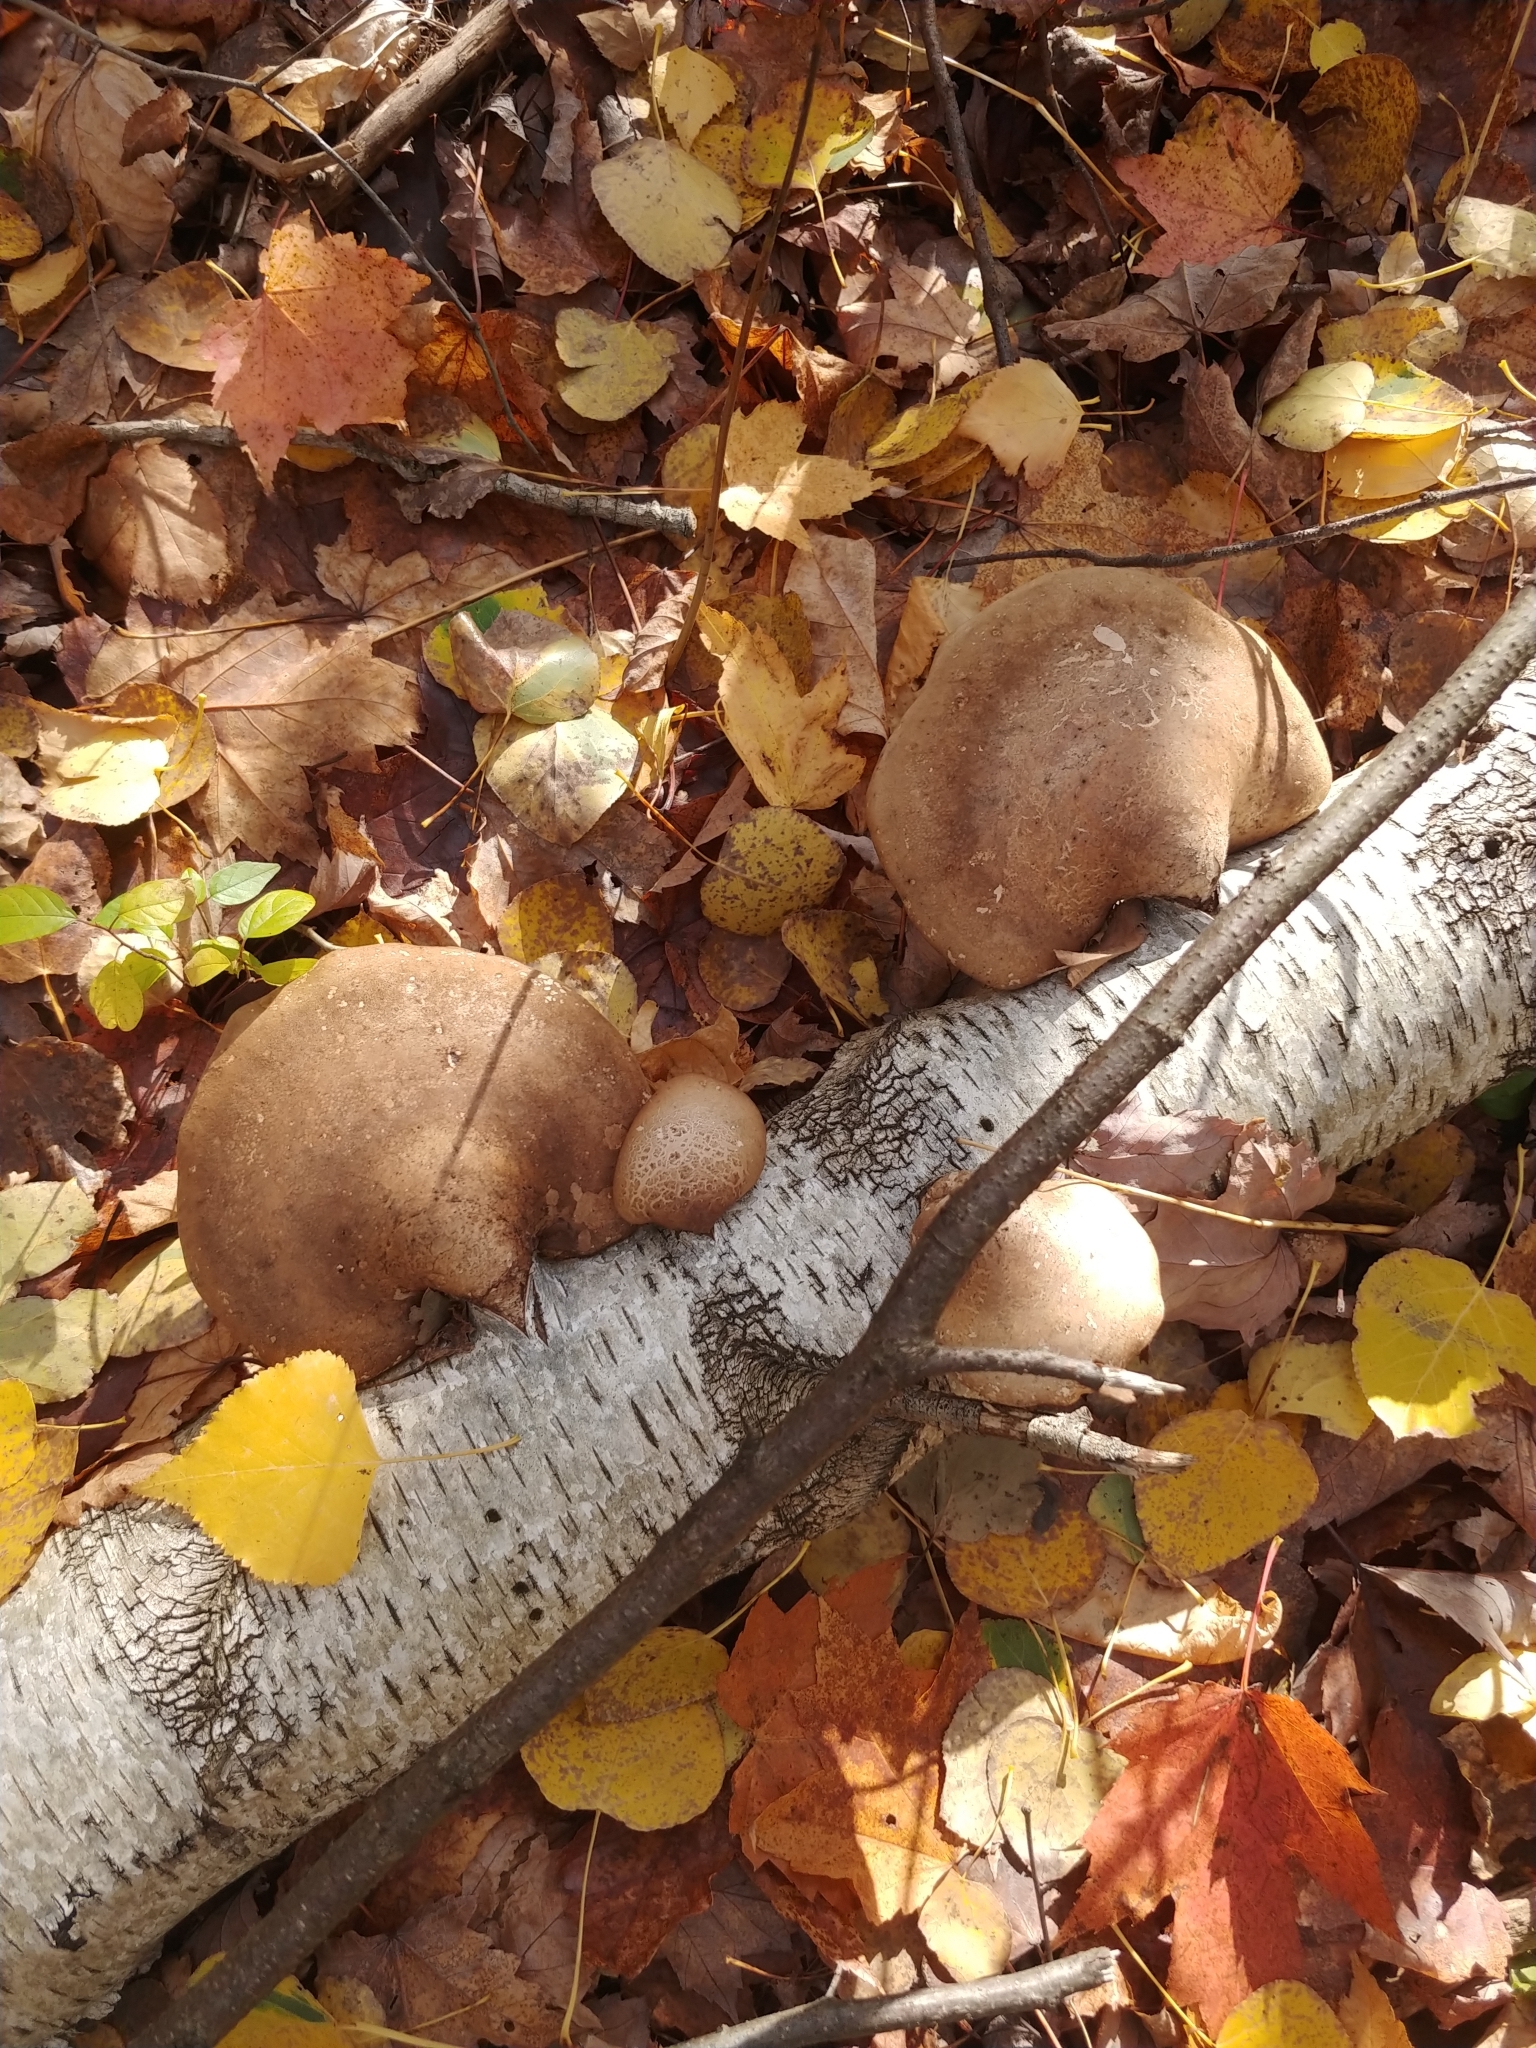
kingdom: Fungi
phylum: Basidiomycota
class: Agaricomycetes
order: Polyporales
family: Fomitopsidaceae
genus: Fomitopsis
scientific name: Fomitopsis betulina
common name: Birch polypore
